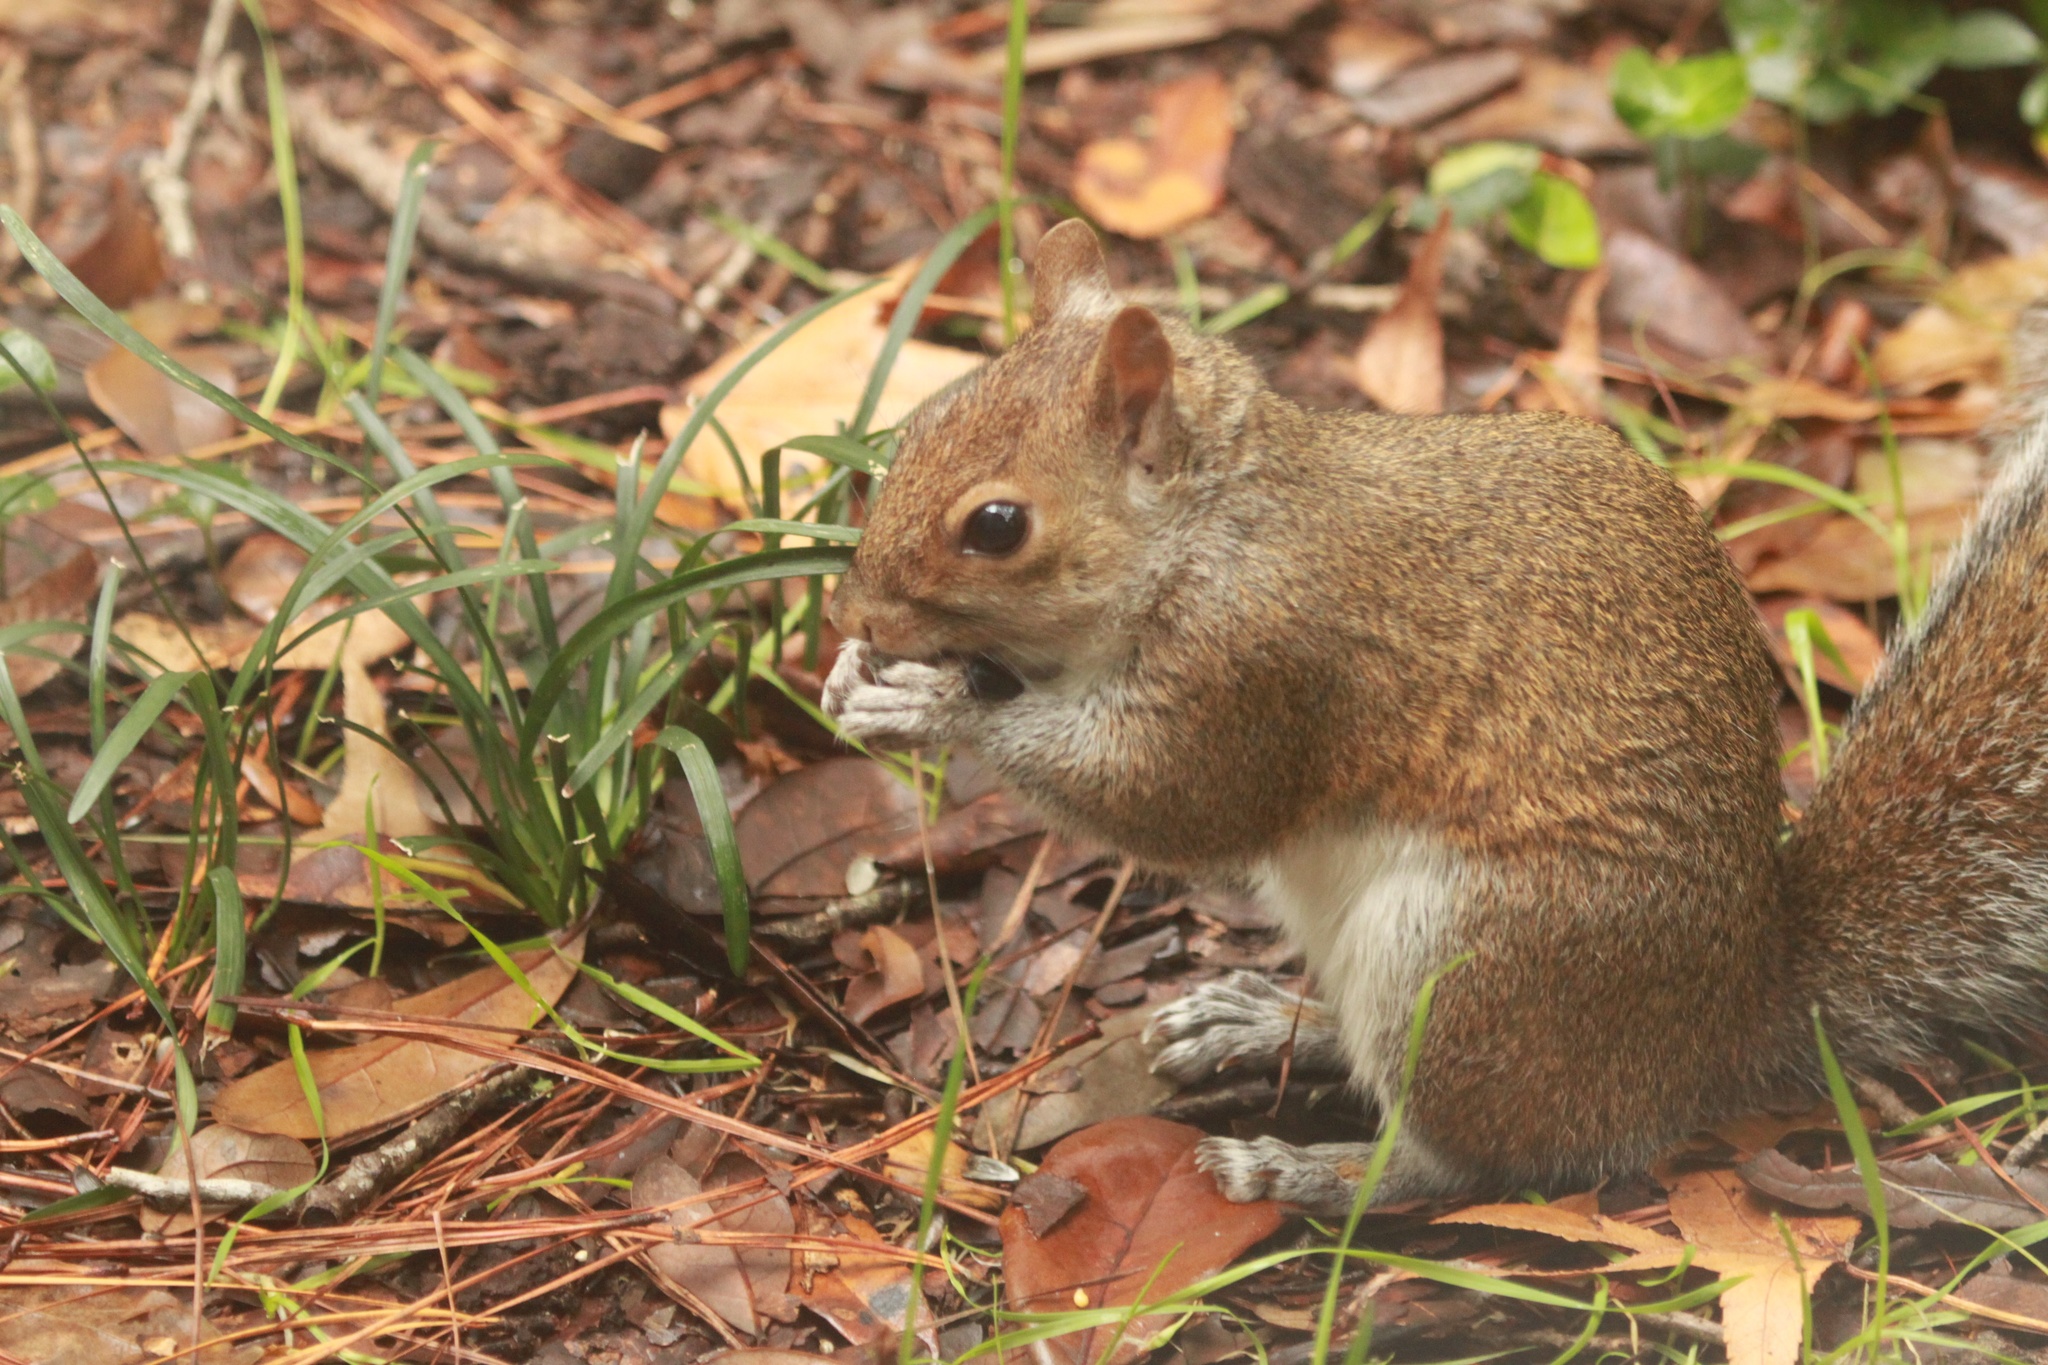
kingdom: Animalia
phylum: Chordata
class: Mammalia
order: Rodentia
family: Sciuridae
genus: Sciurus
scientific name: Sciurus carolinensis
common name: Eastern gray squirrel
